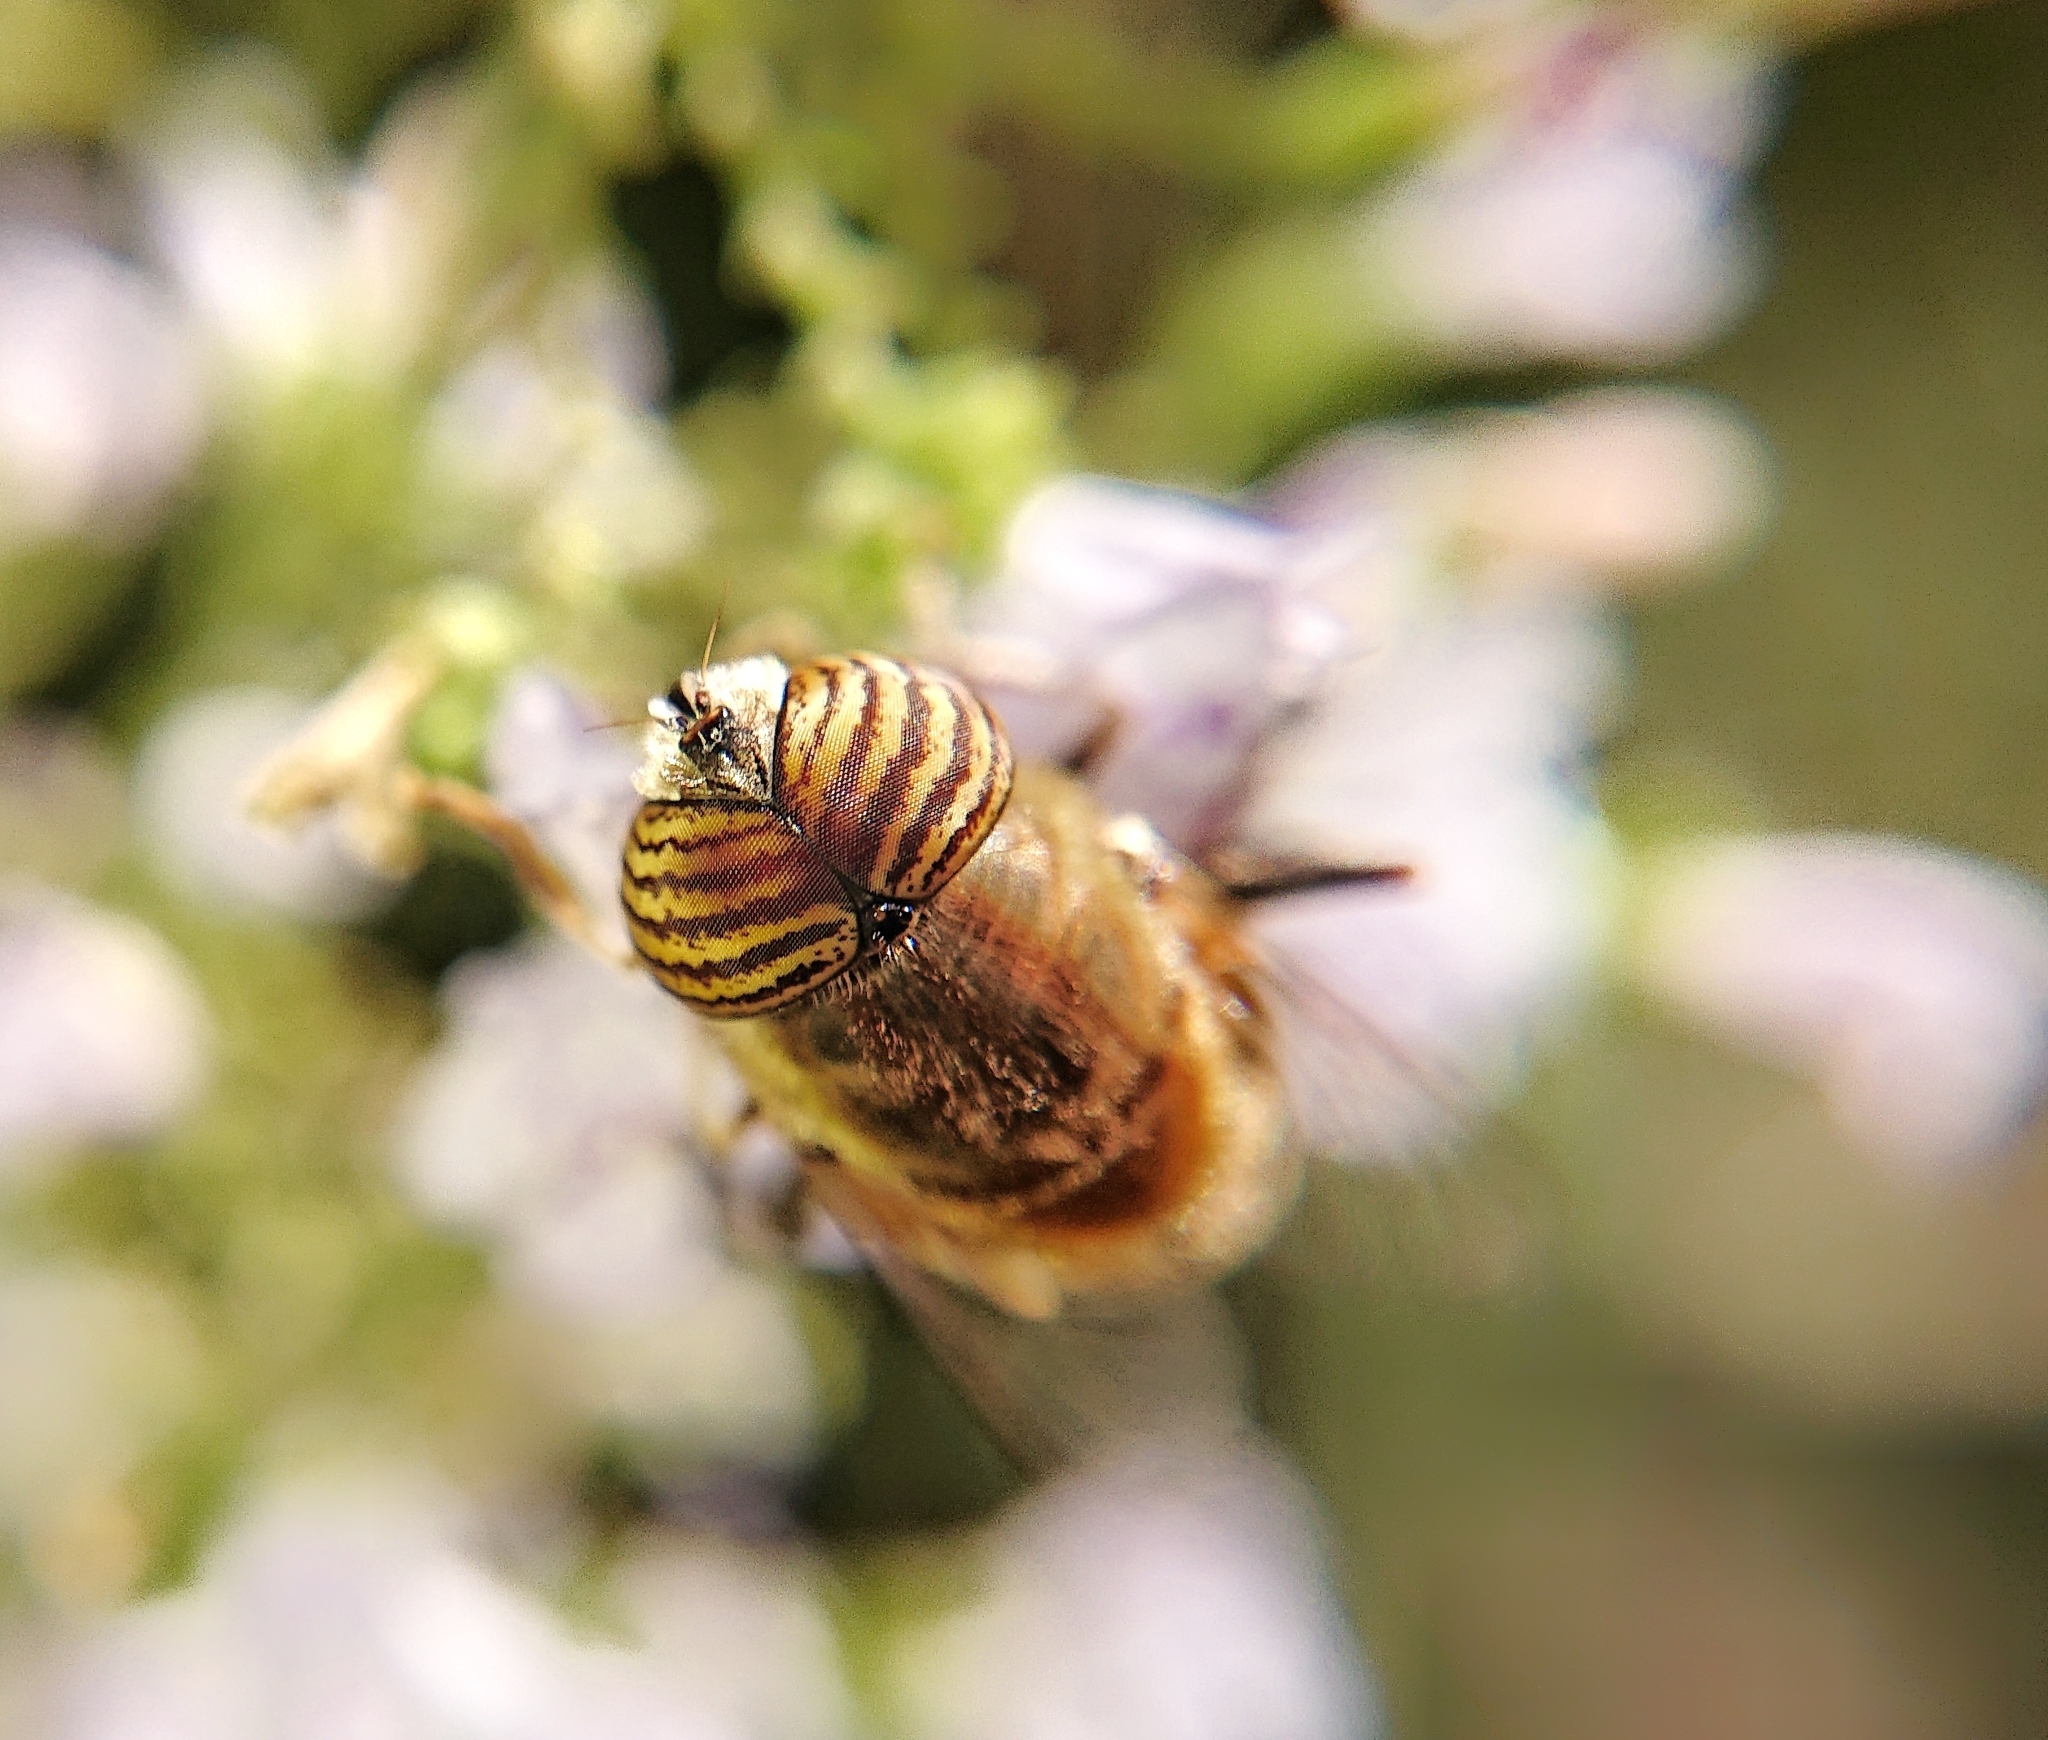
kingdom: Animalia
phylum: Arthropoda
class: Insecta
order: Diptera
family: Syrphidae
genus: Eristalinus
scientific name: Eristalinus taeniops
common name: Syrphid fly
